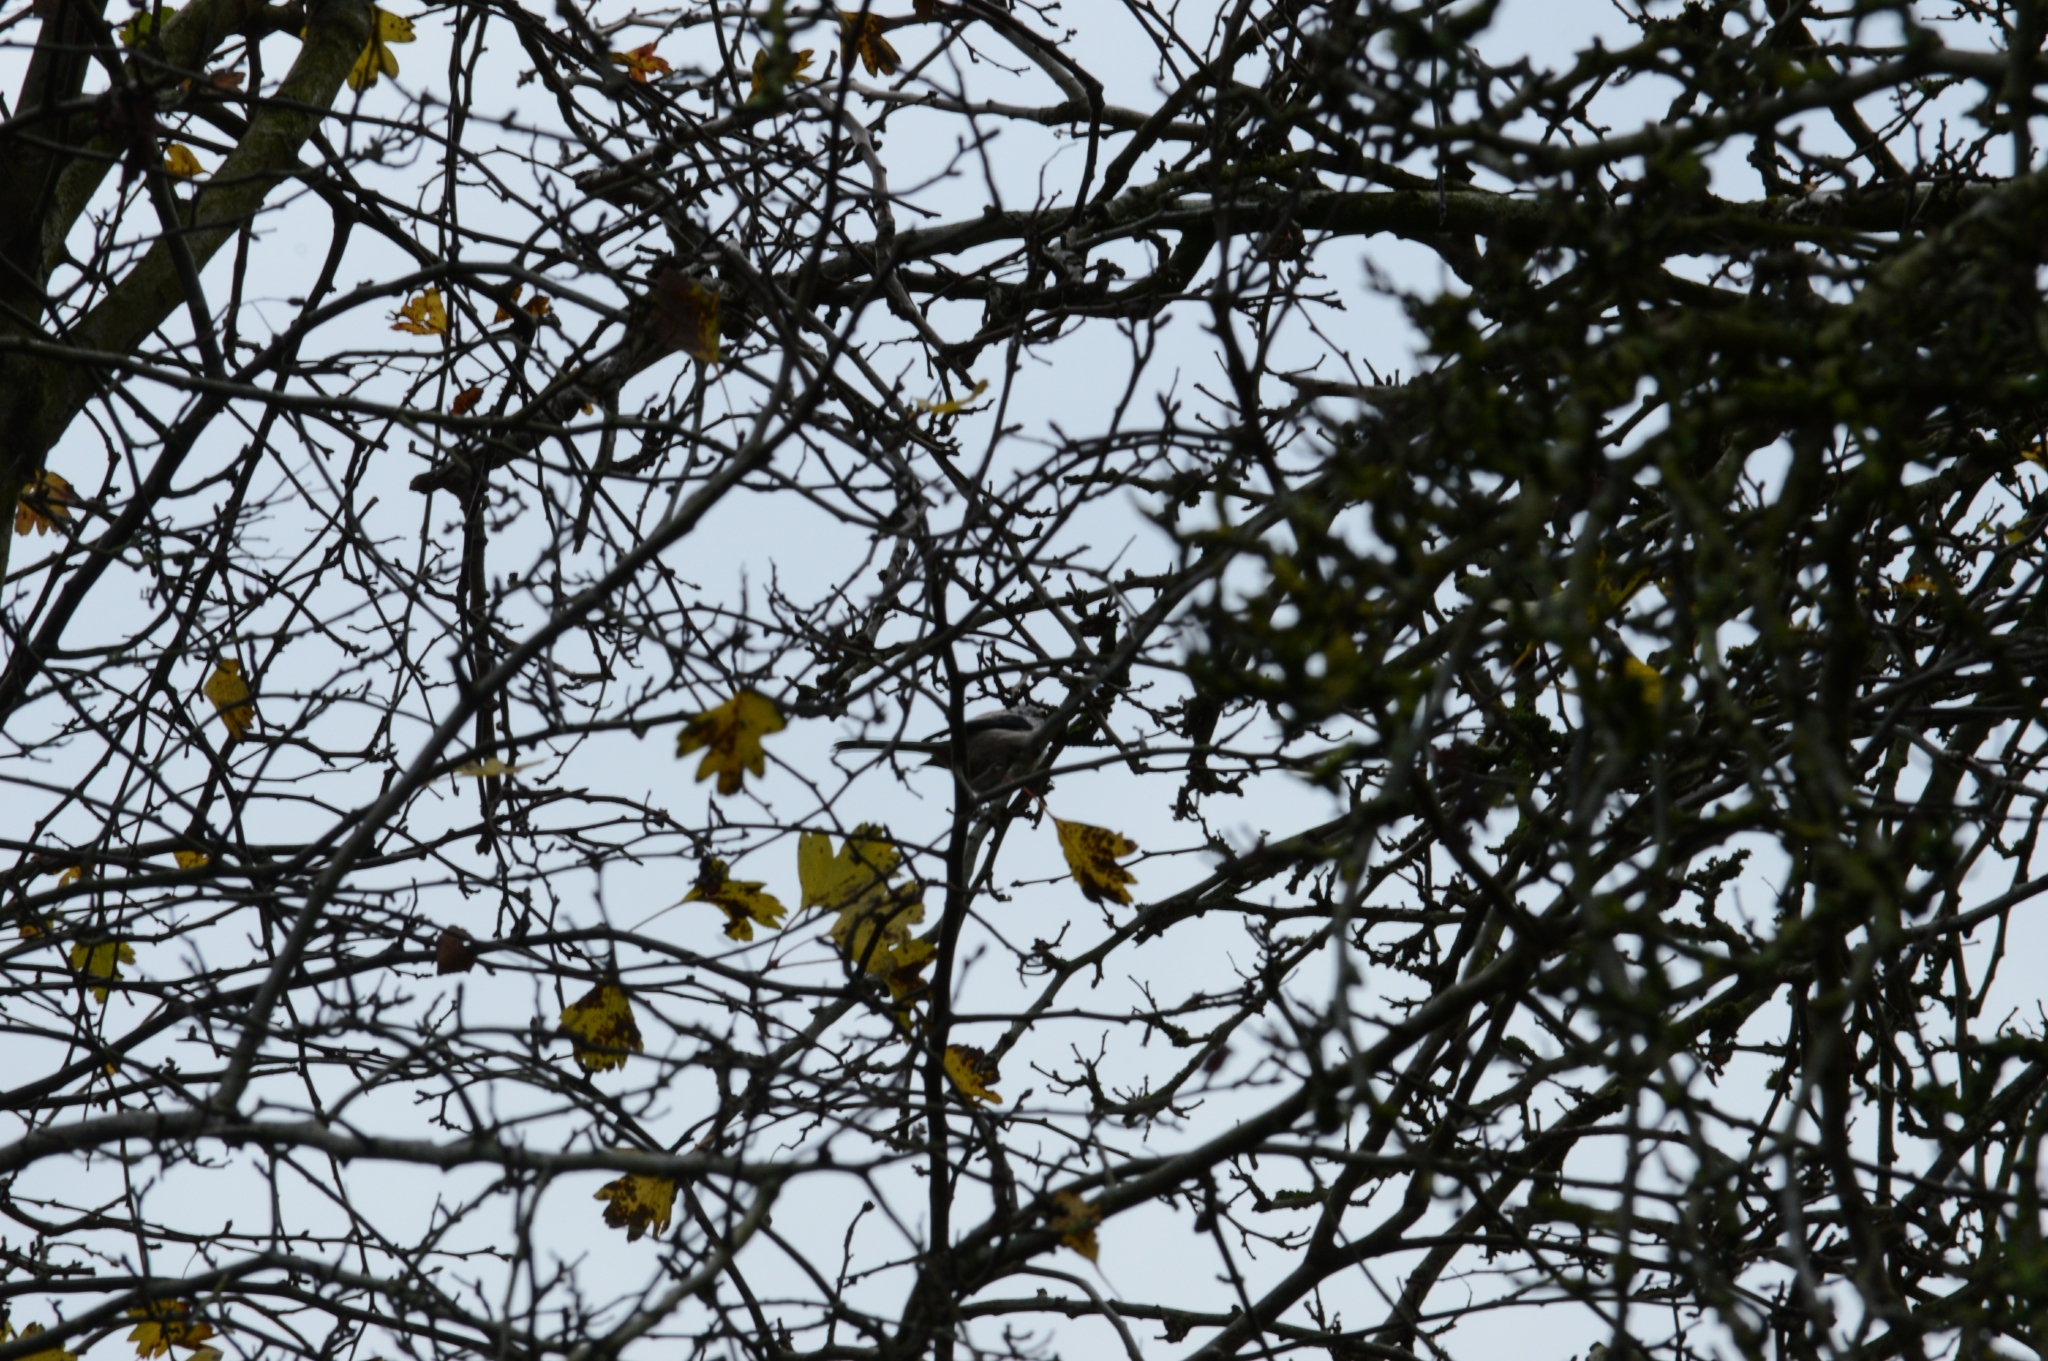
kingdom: Animalia
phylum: Chordata
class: Aves
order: Passeriformes
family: Aegithalidae
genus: Aegithalos
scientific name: Aegithalos caudatus
